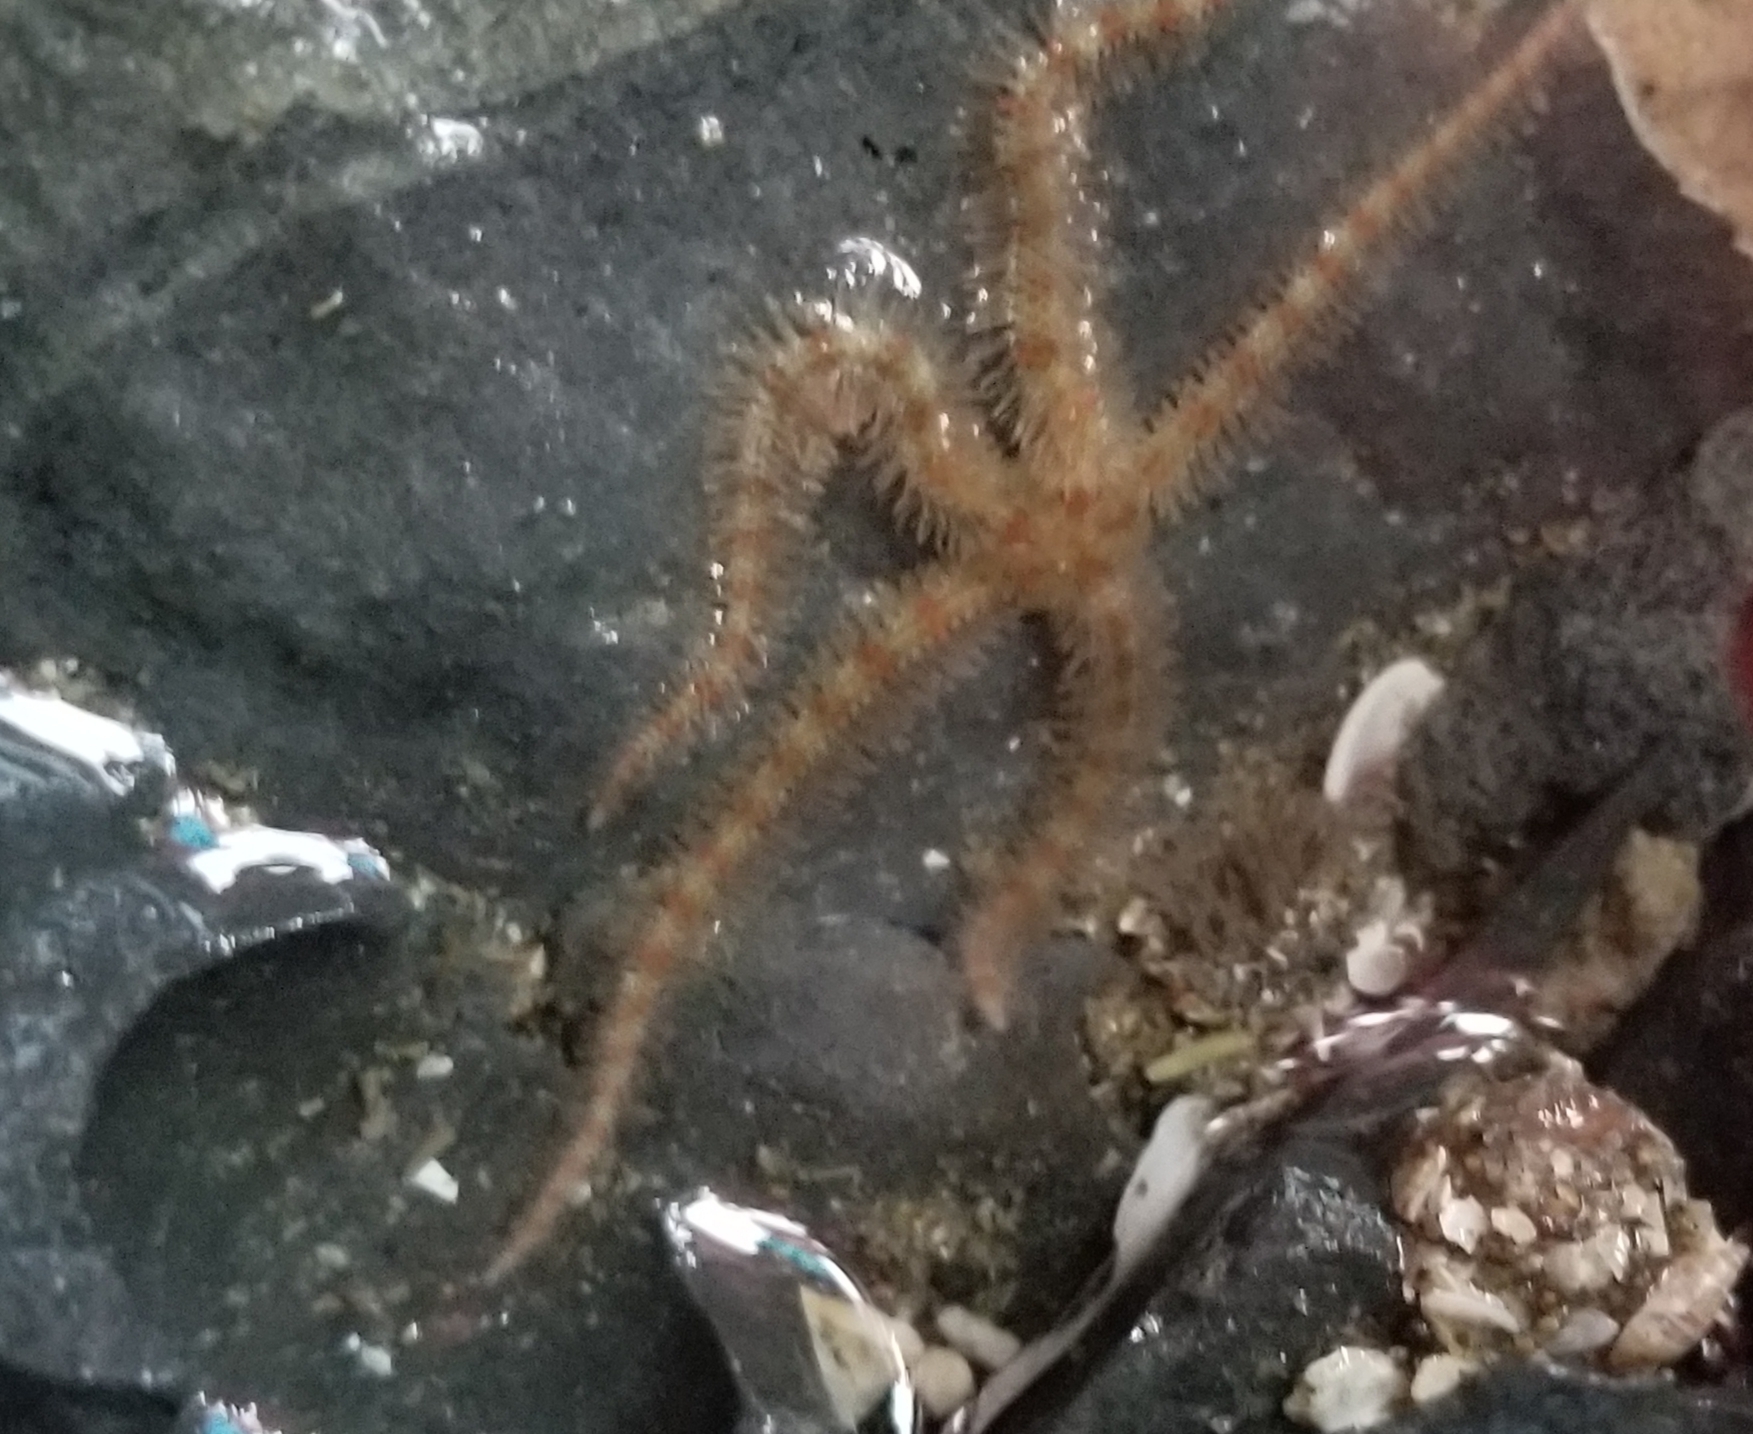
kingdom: Animalia
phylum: Echinodermata
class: Ophiuroidea
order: Amphilepidida
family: Ophiotrichidae
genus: Ophiothrix
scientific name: Ophiothrix spiculata
